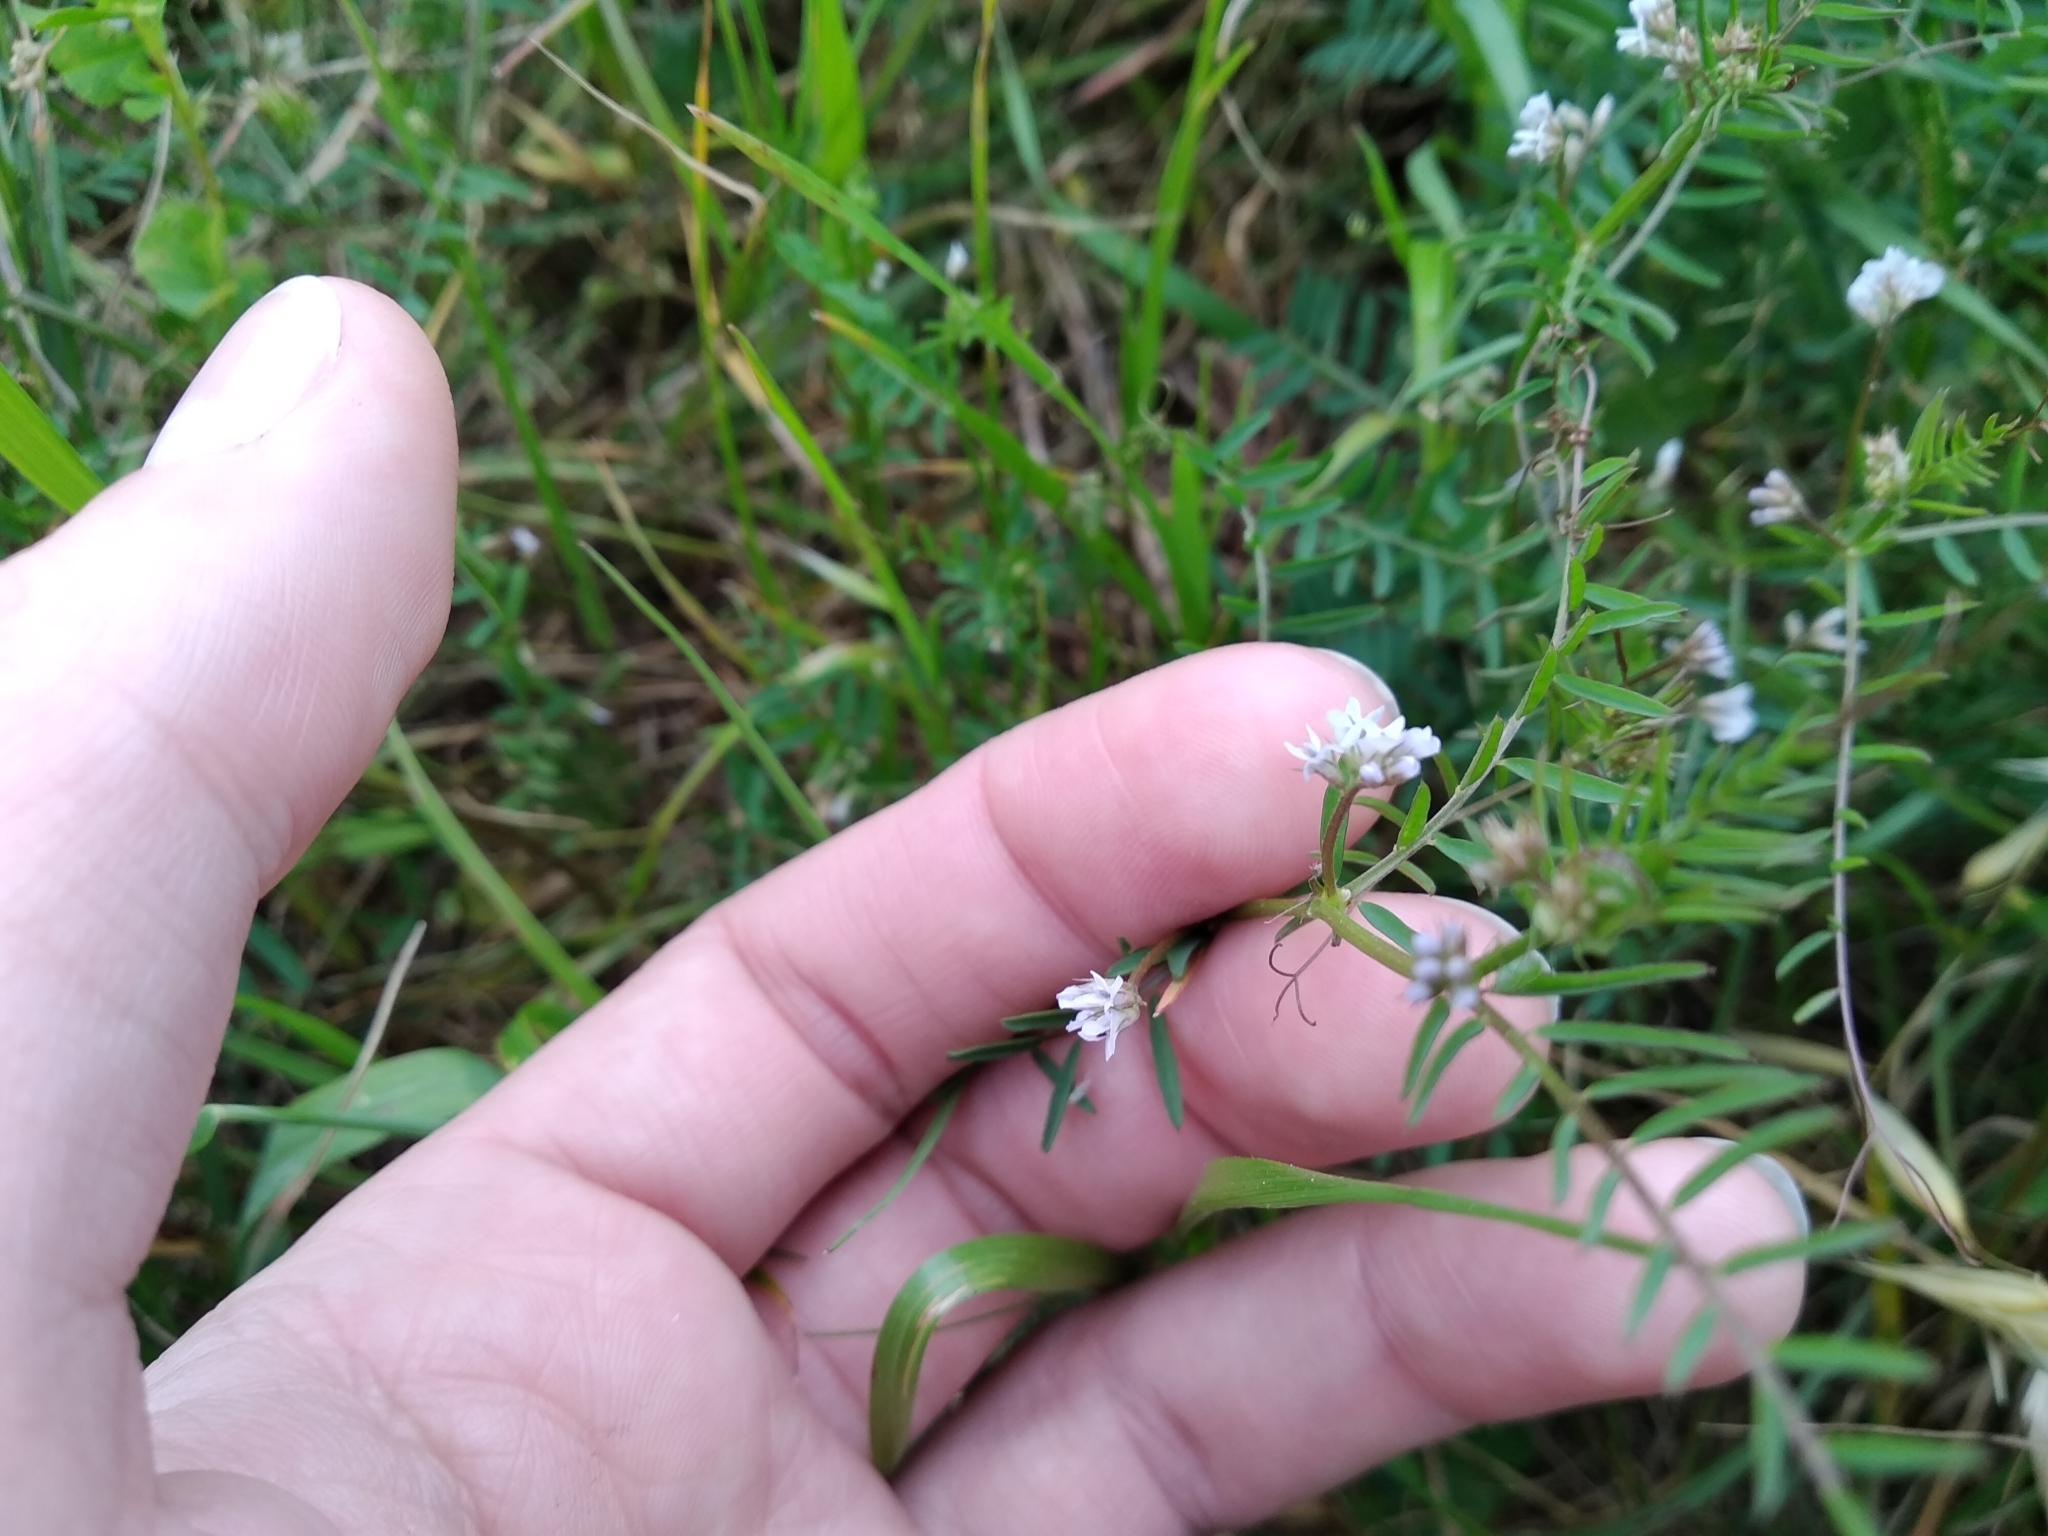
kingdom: Plantae
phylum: Tracheophyta
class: Magnoliopsida
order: Fabales
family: Fabaceae
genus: Vicia
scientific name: Vicia hirsuta
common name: Tiny vetch
